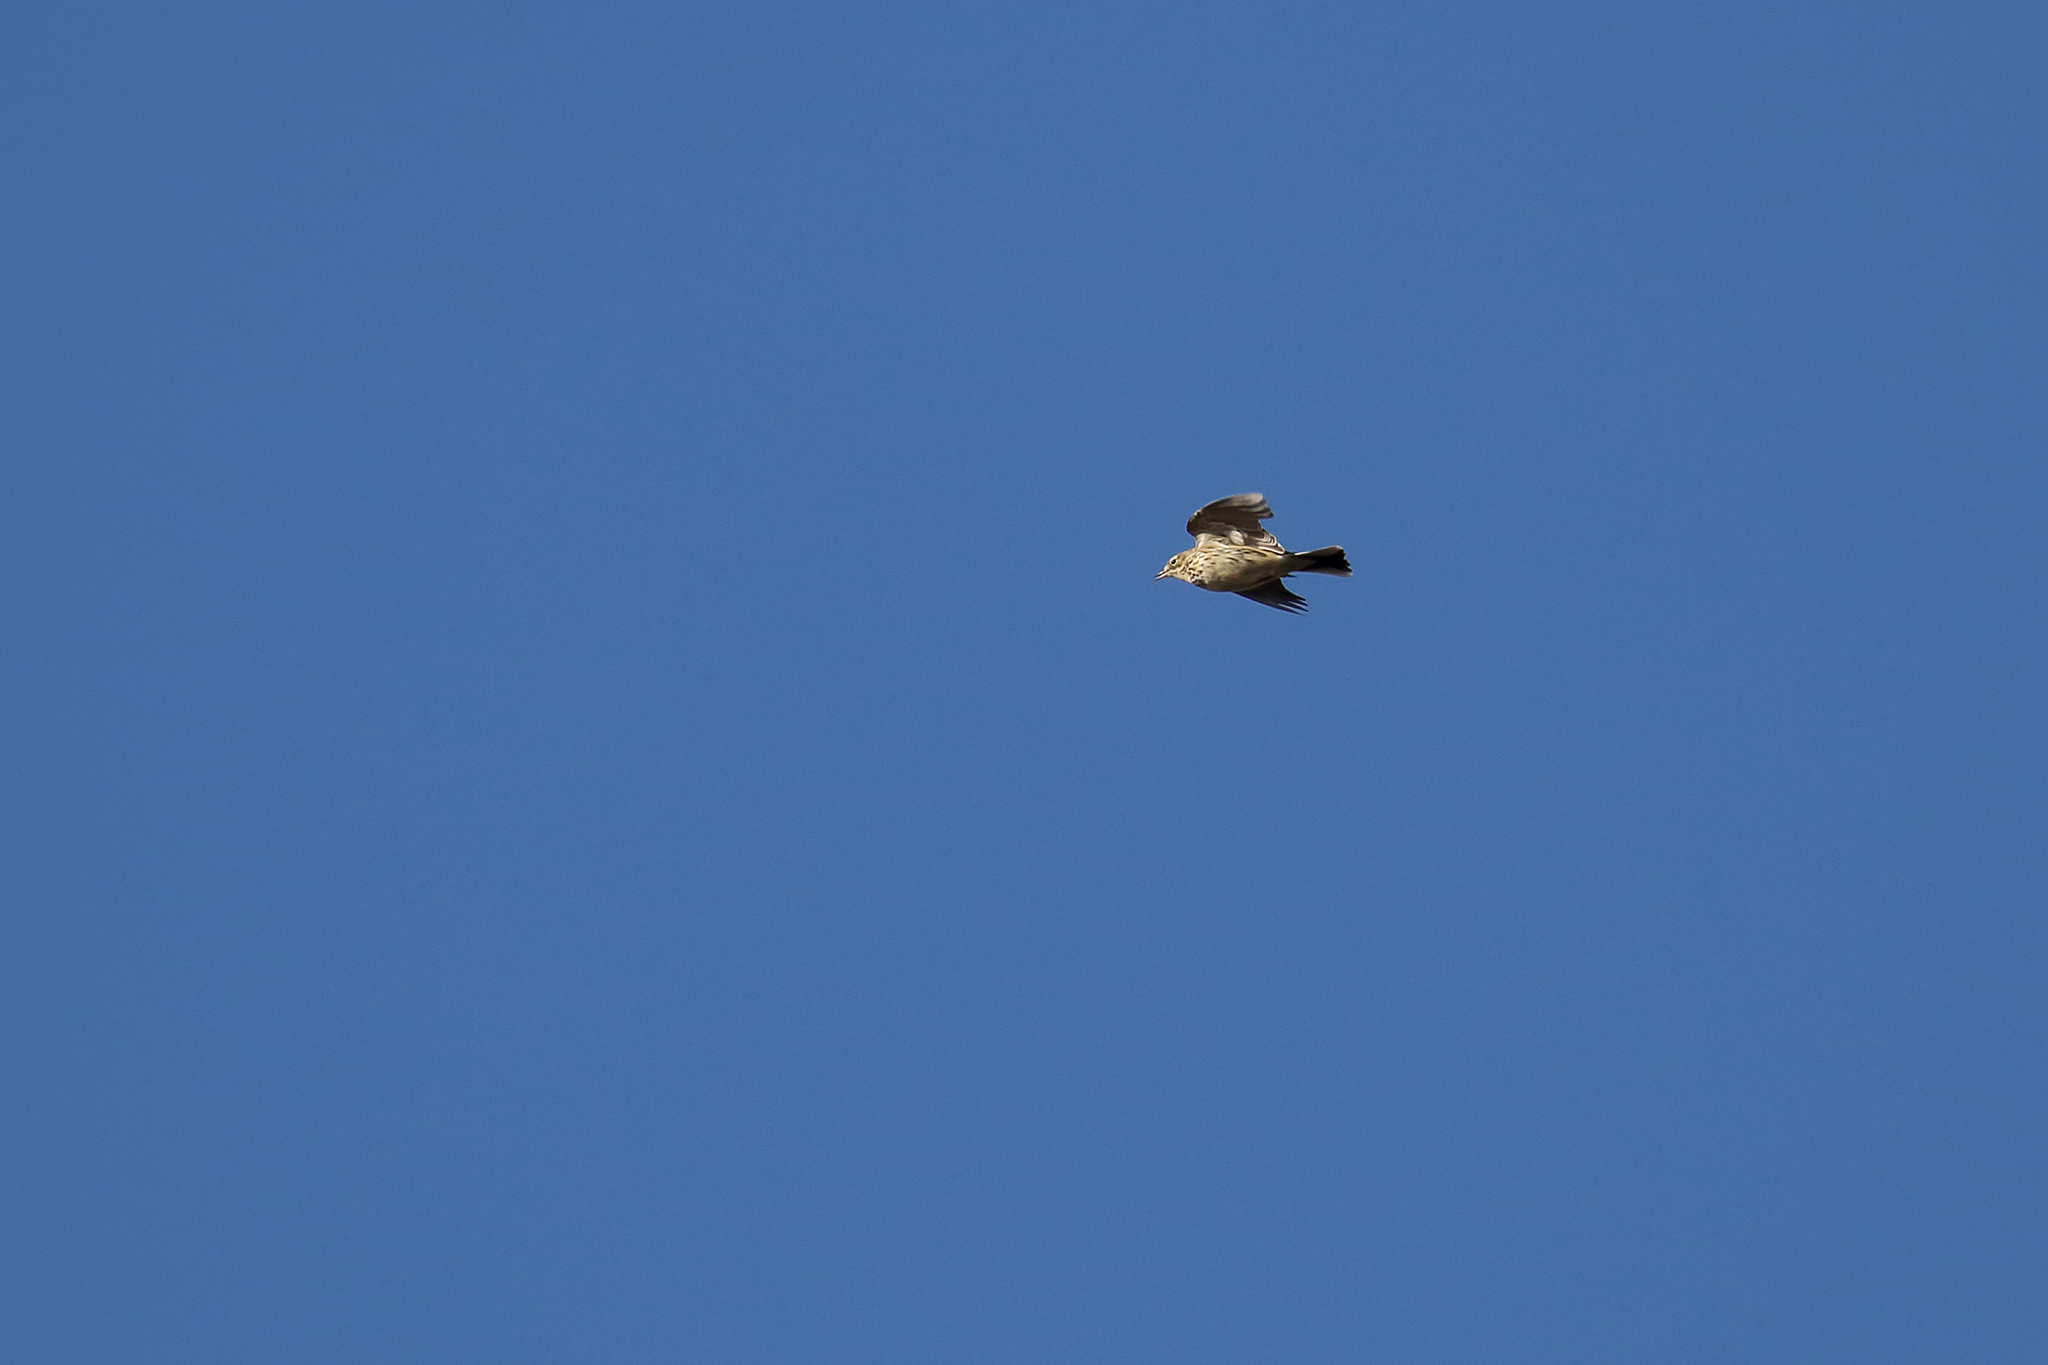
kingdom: Animalia
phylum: Chordata
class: Aves
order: Passeriformes
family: Alaudidae
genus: Alauda
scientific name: Alauda arvensis
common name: Eurasian skylark
